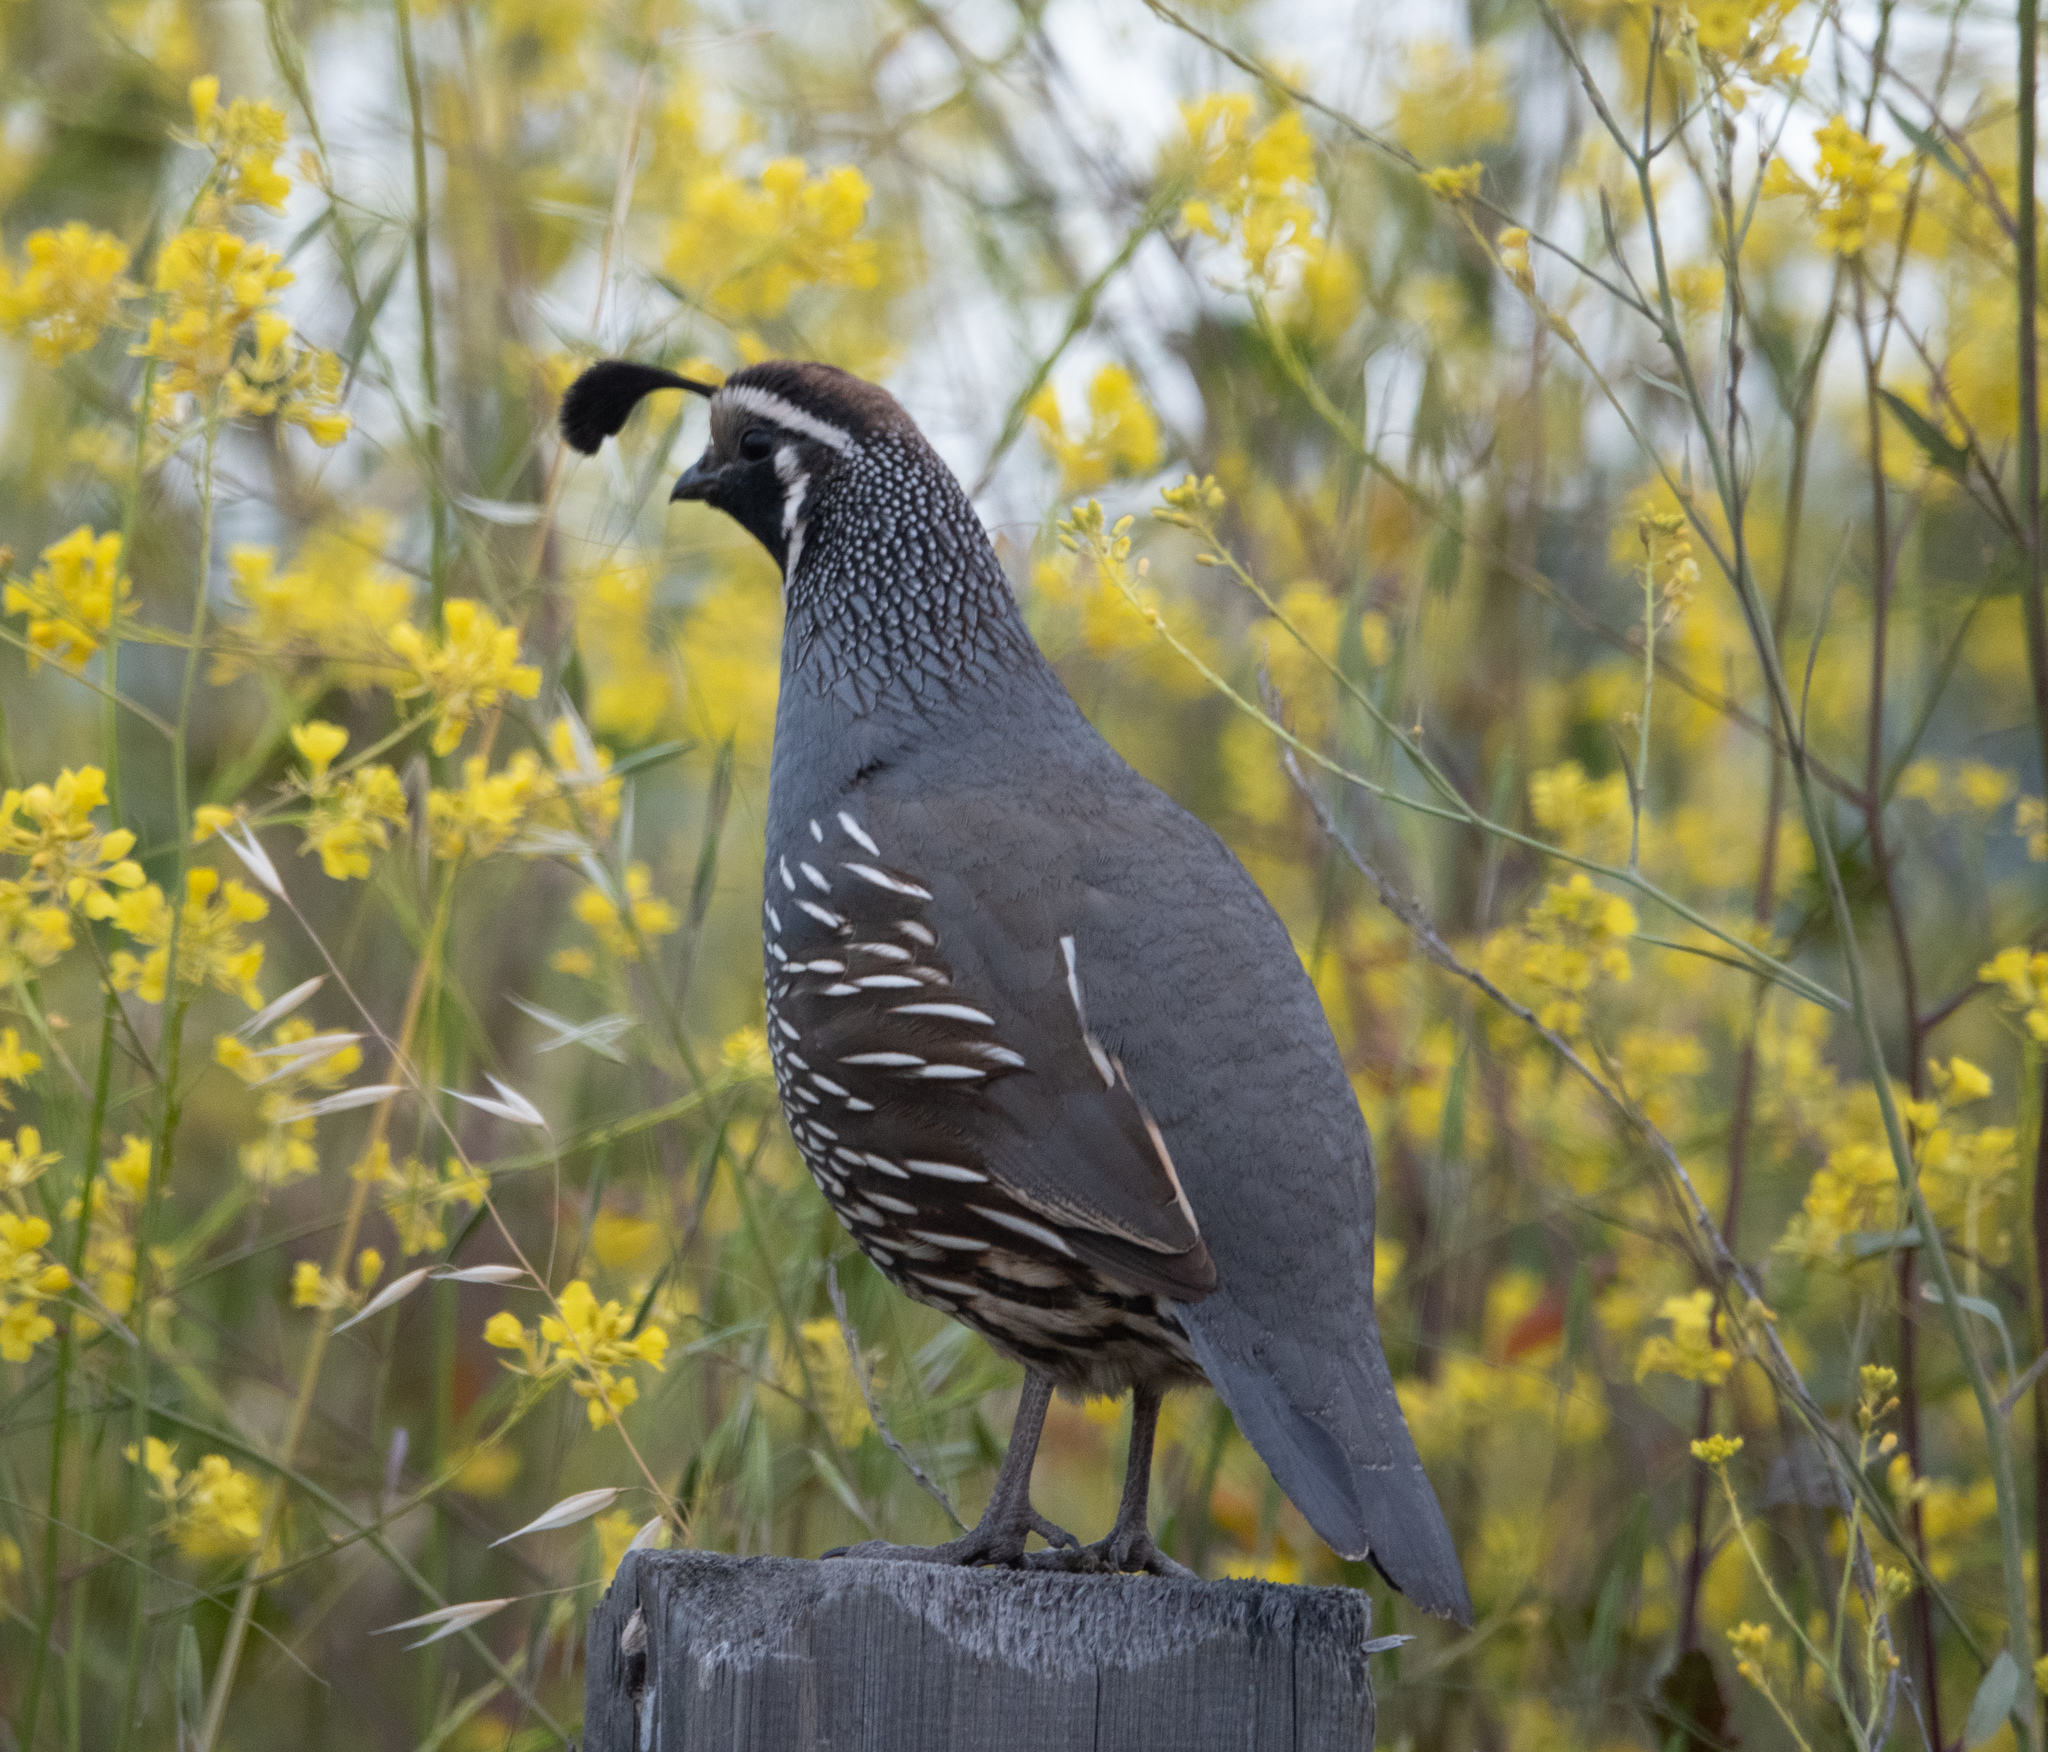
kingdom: Animalia
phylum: Chordata
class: Aves
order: Galliformes
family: Odontophoridae
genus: Callipepla
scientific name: Callipepla californica
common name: California quail
